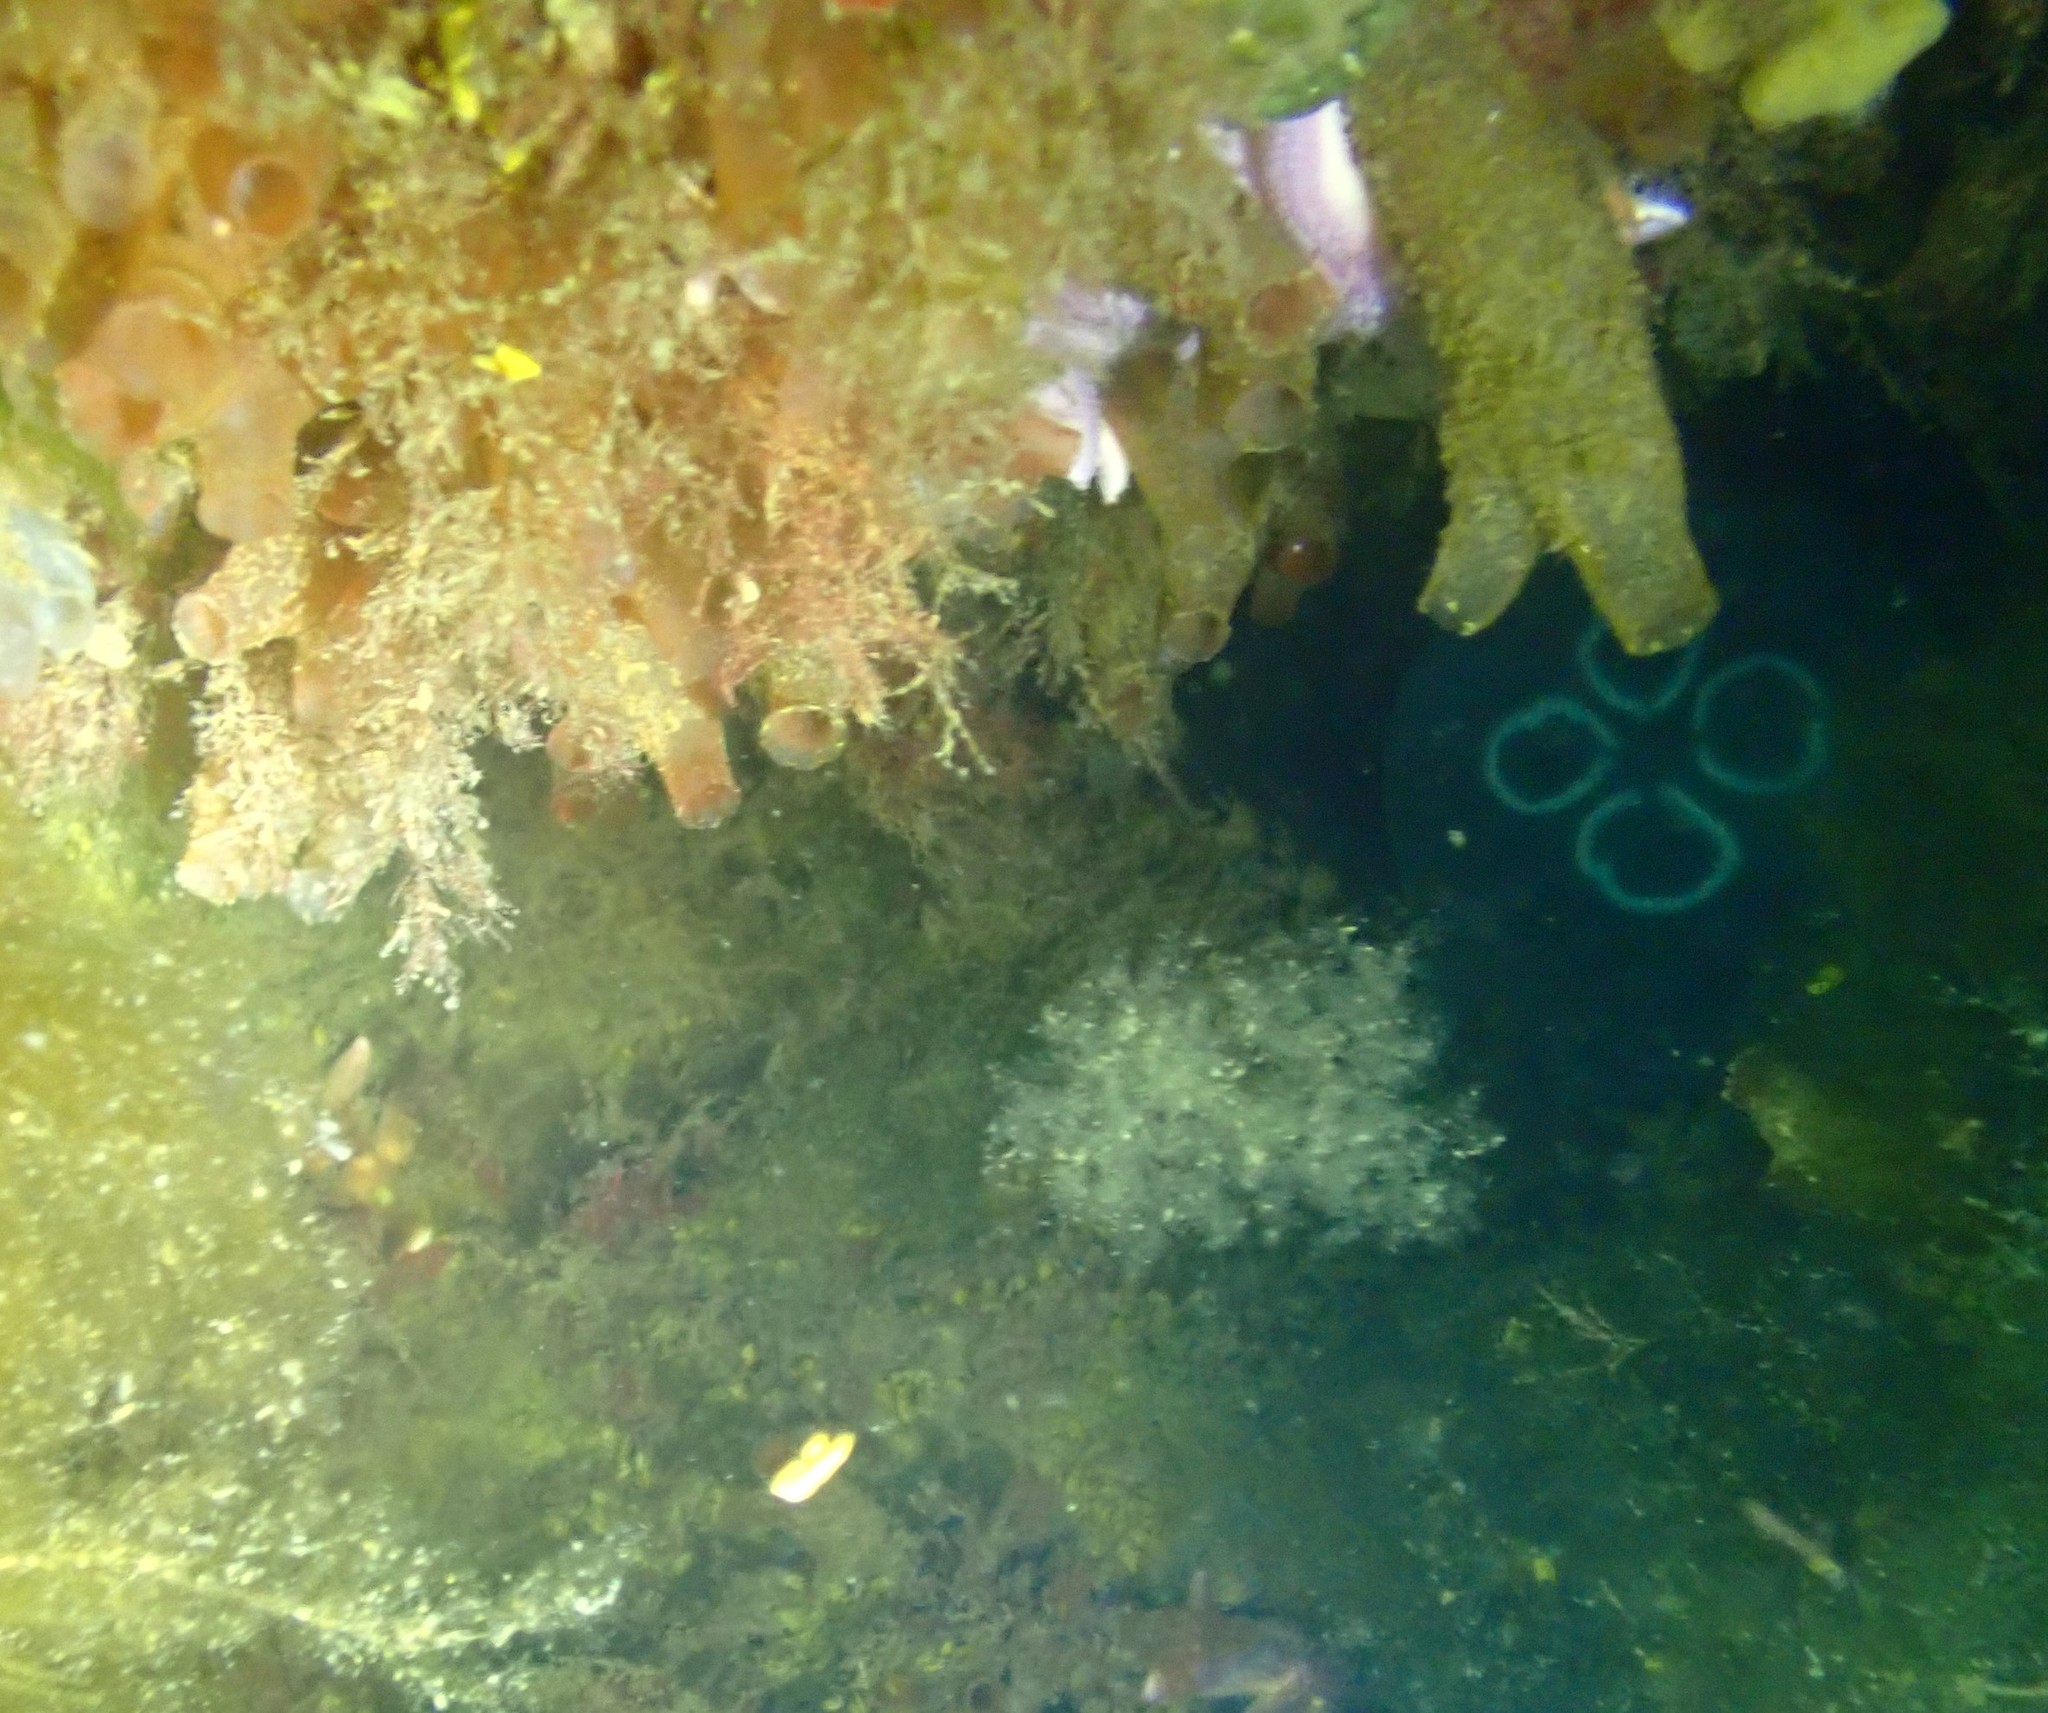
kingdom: Animalia
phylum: Cnidaria
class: Scyphozoa
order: Semaeostomeae
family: Ulmaridae
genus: Aurelia
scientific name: Aurelia aurita
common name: Moon jellyfish
